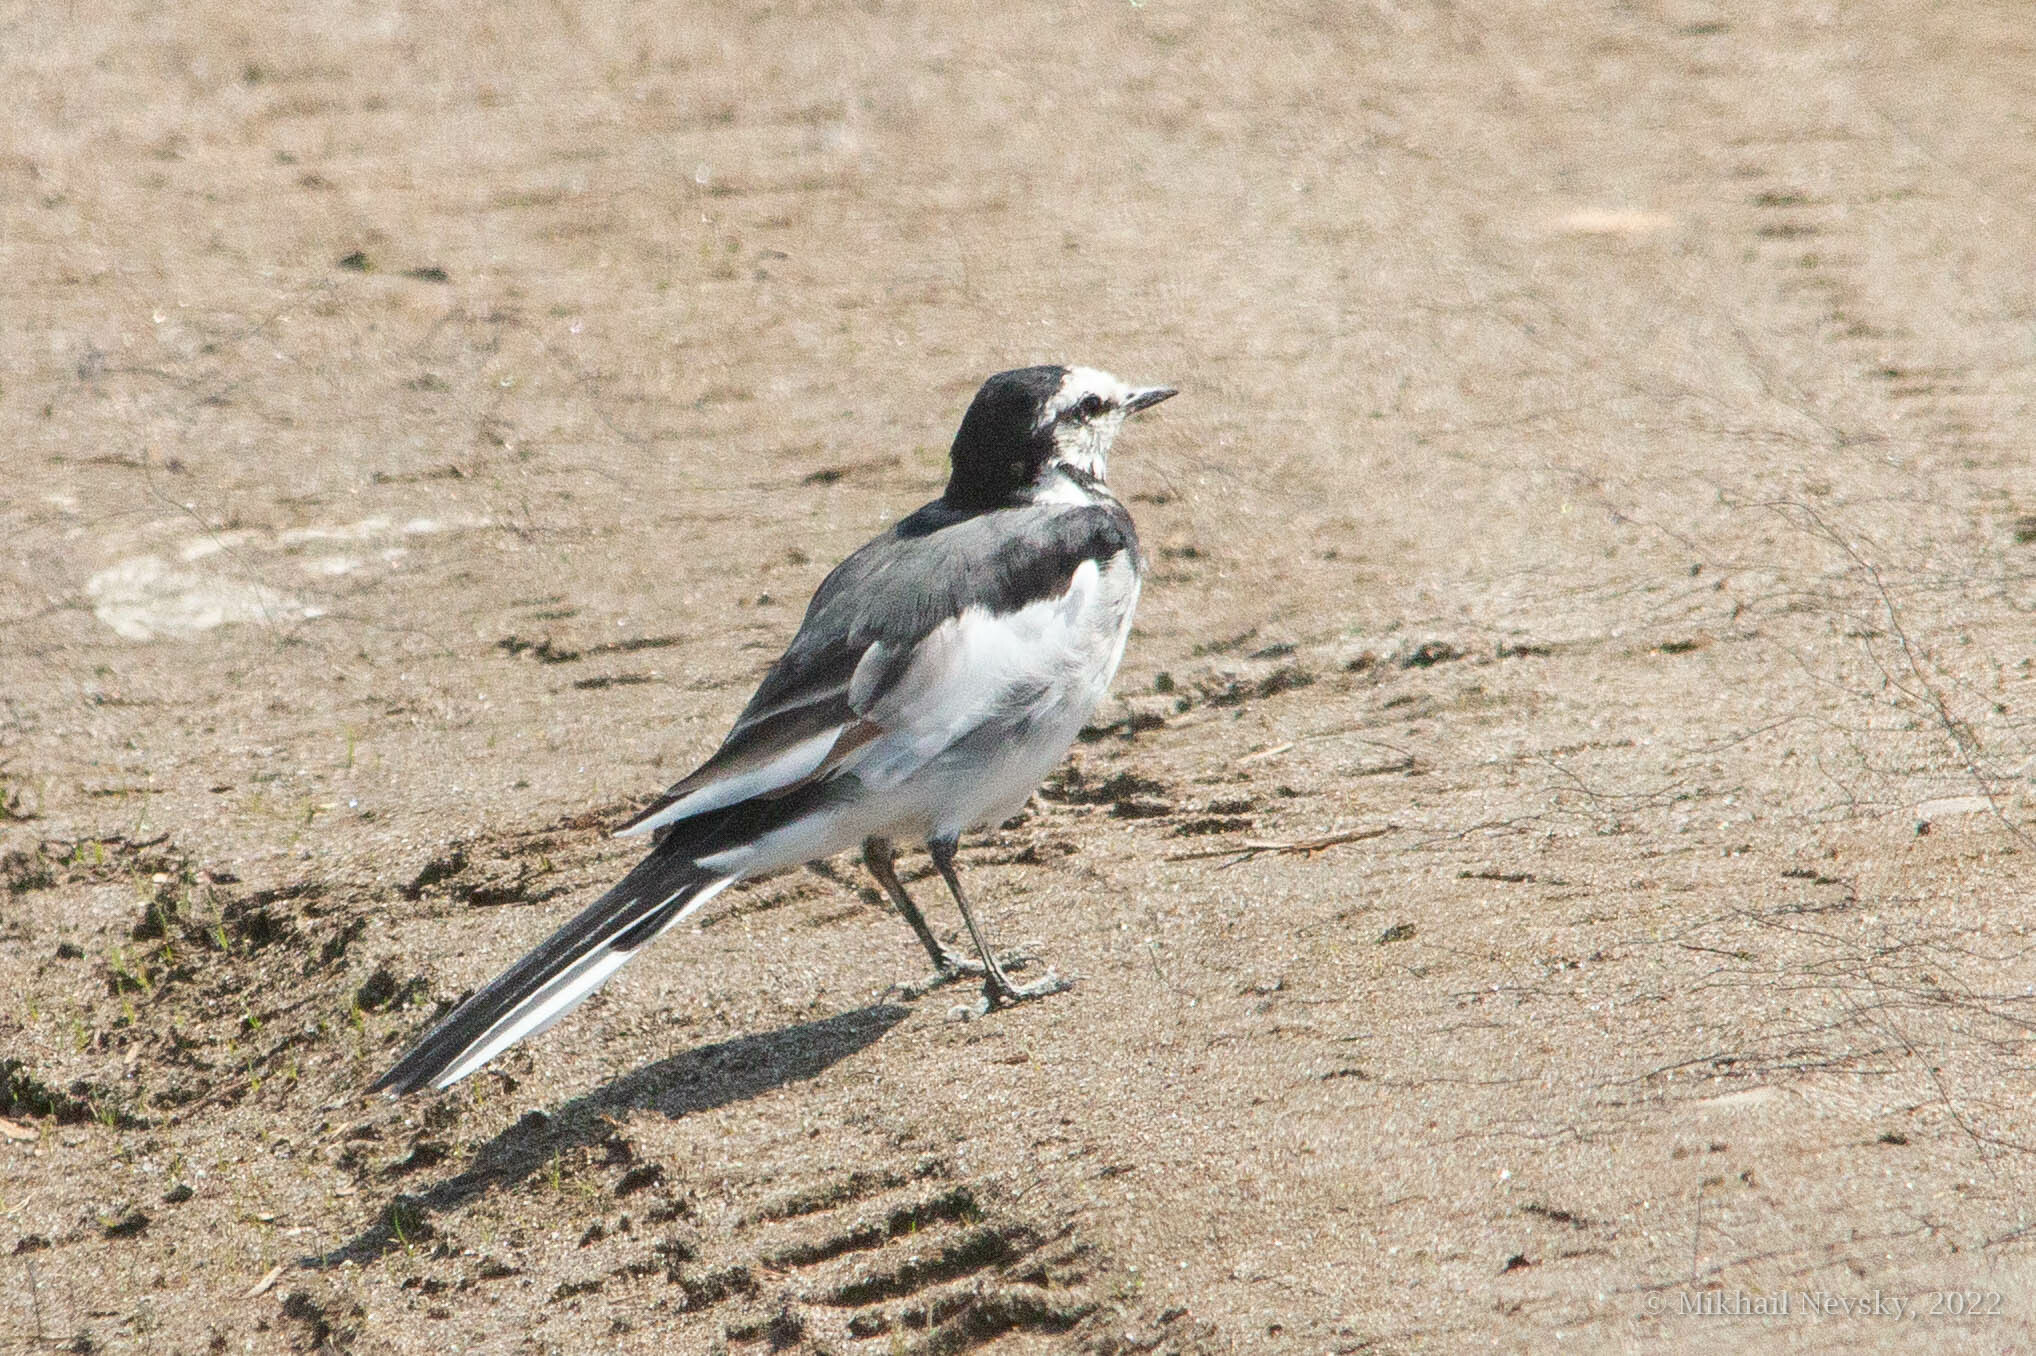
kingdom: Animalia
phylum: Chordata
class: Aves
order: Passeriformes
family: Motacillidae
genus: Motacilla
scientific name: Motacilla alba
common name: White wagtail
